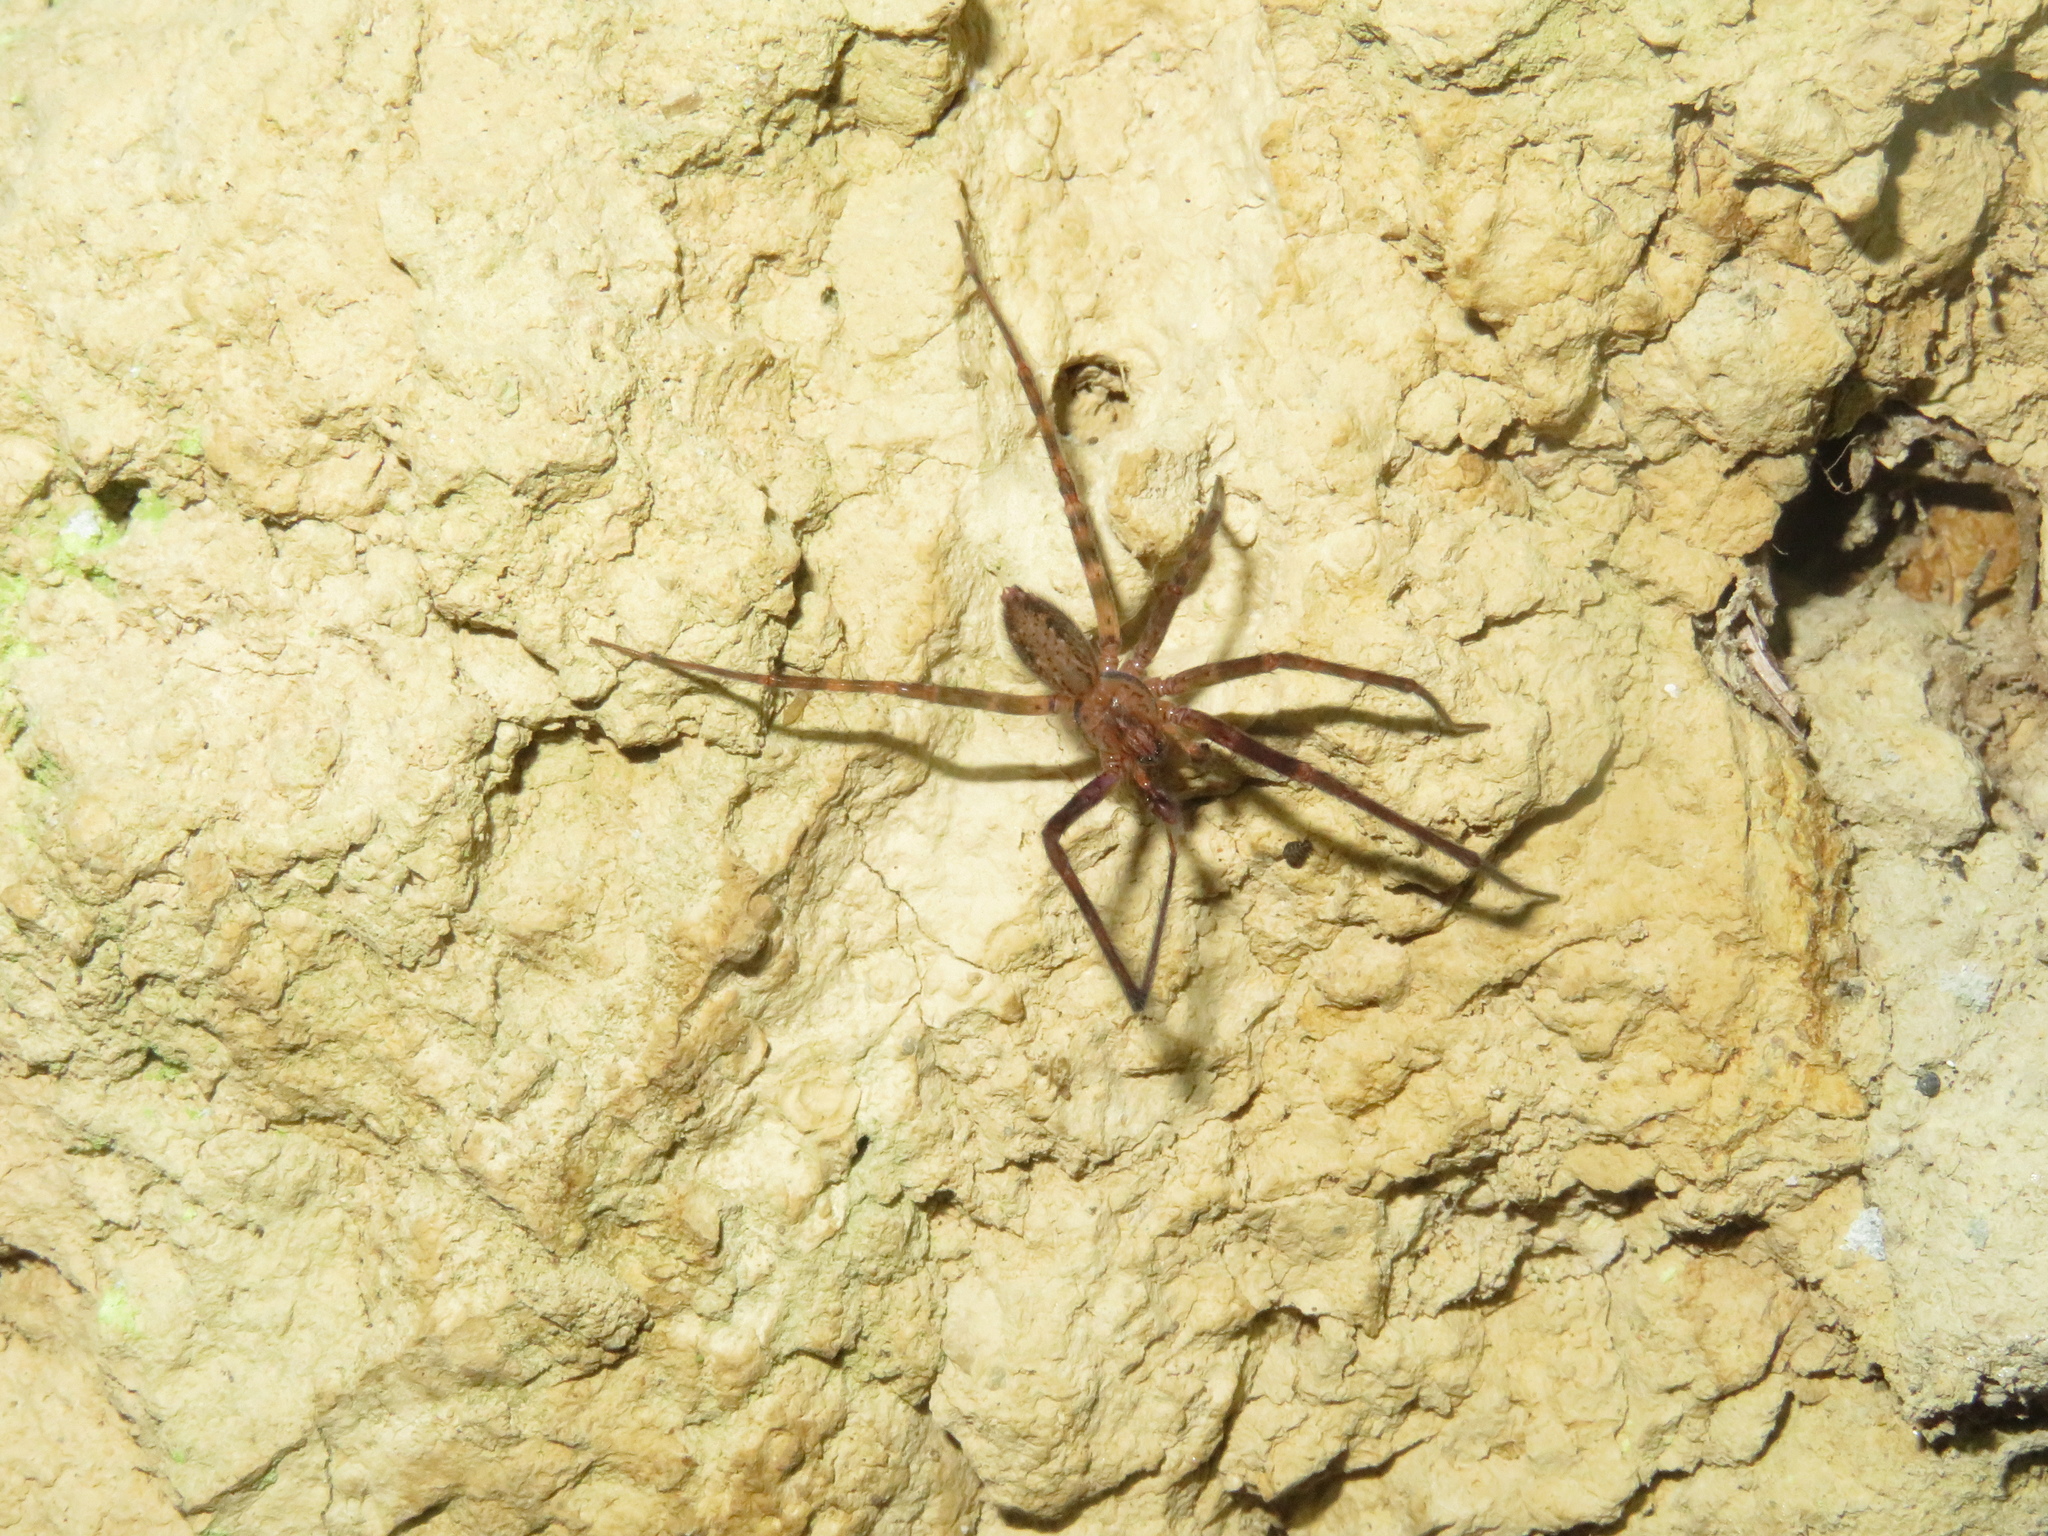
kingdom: Animalia
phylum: Arthropoda
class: Arachnida
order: Araneae
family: Stiphidiidae
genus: Stiphidion
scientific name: Stiphidion facetum
